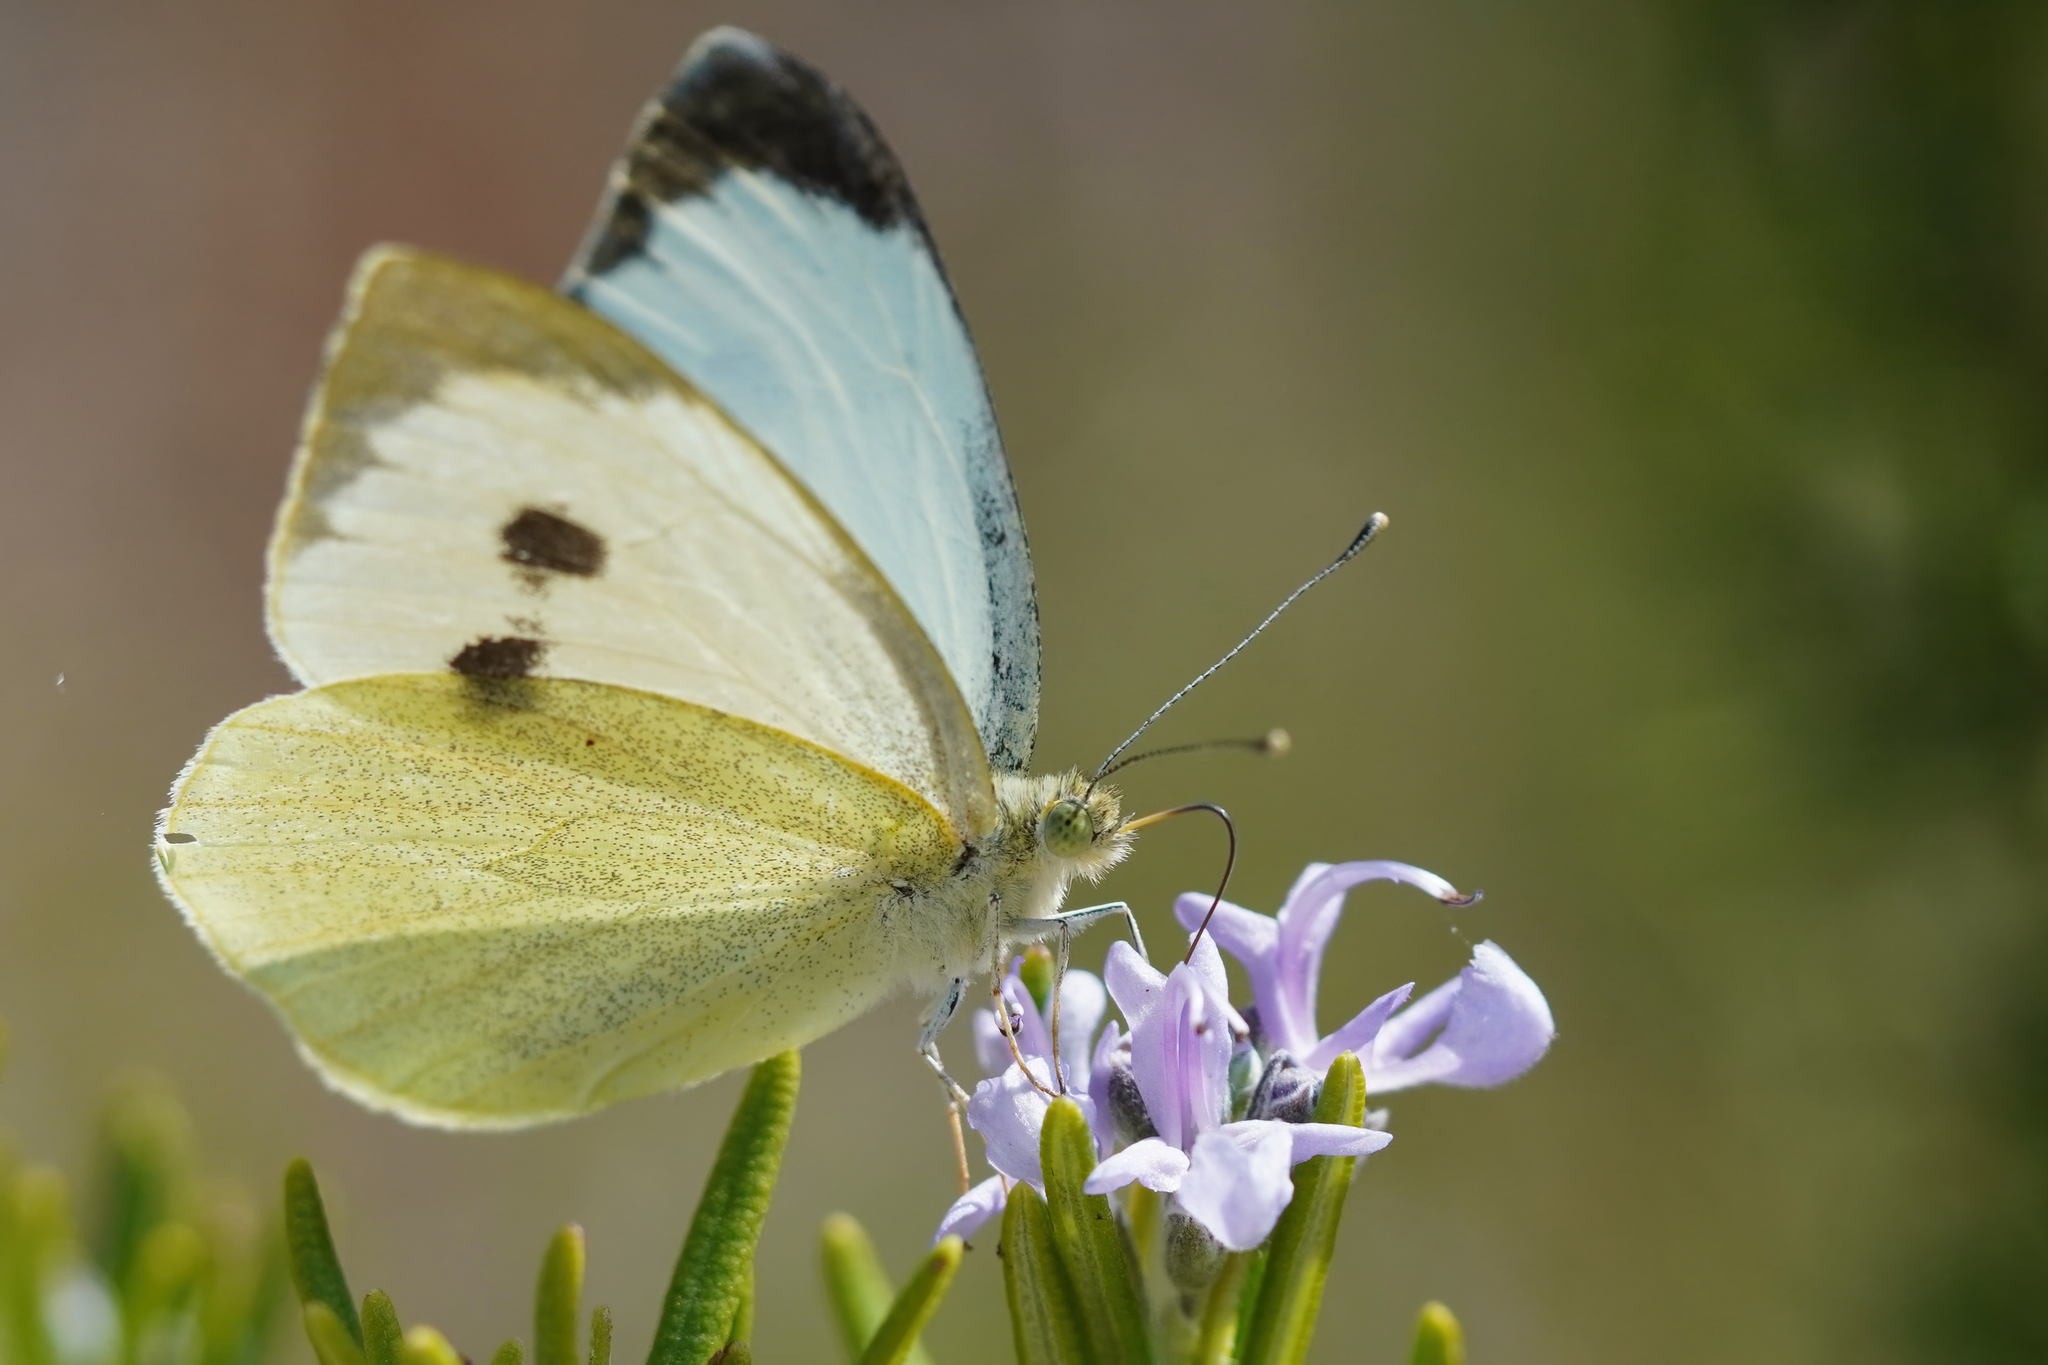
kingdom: Animalia
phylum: Arthropoda
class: Insecta
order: Lepidoptera
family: Pieridae
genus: Pieris
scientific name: Pieris brassicae
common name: Large white
